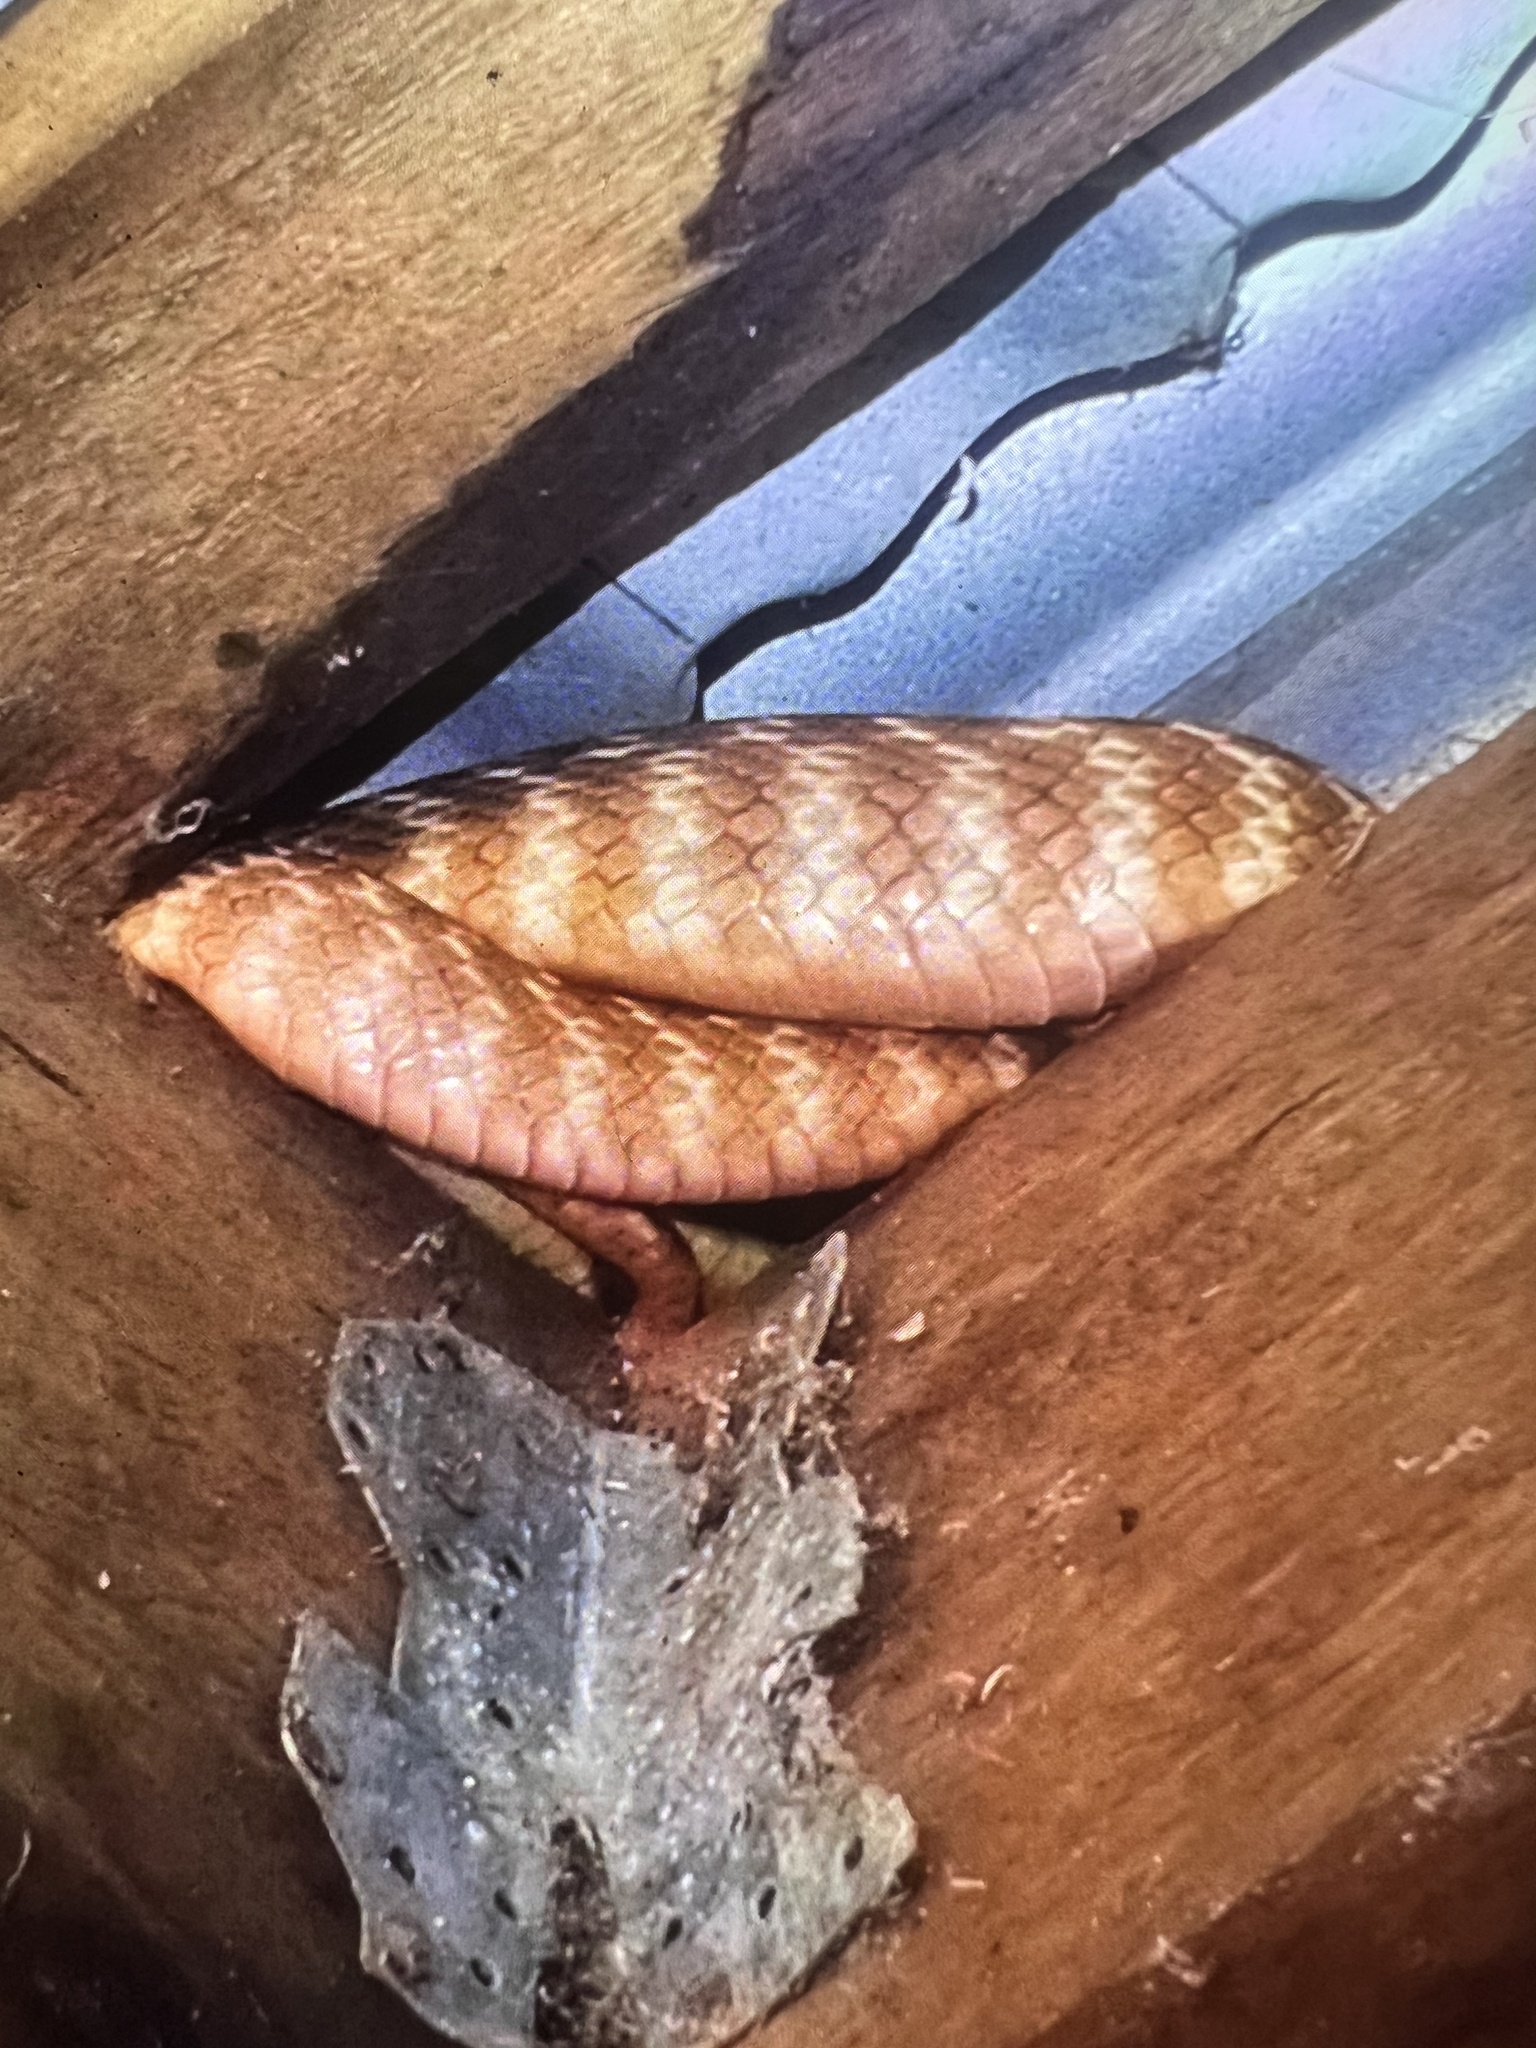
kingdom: Animalia
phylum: Chordata
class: Squamata
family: Colubridae
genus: Boiga
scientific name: Boiga irregularis
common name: Brown tree snake
